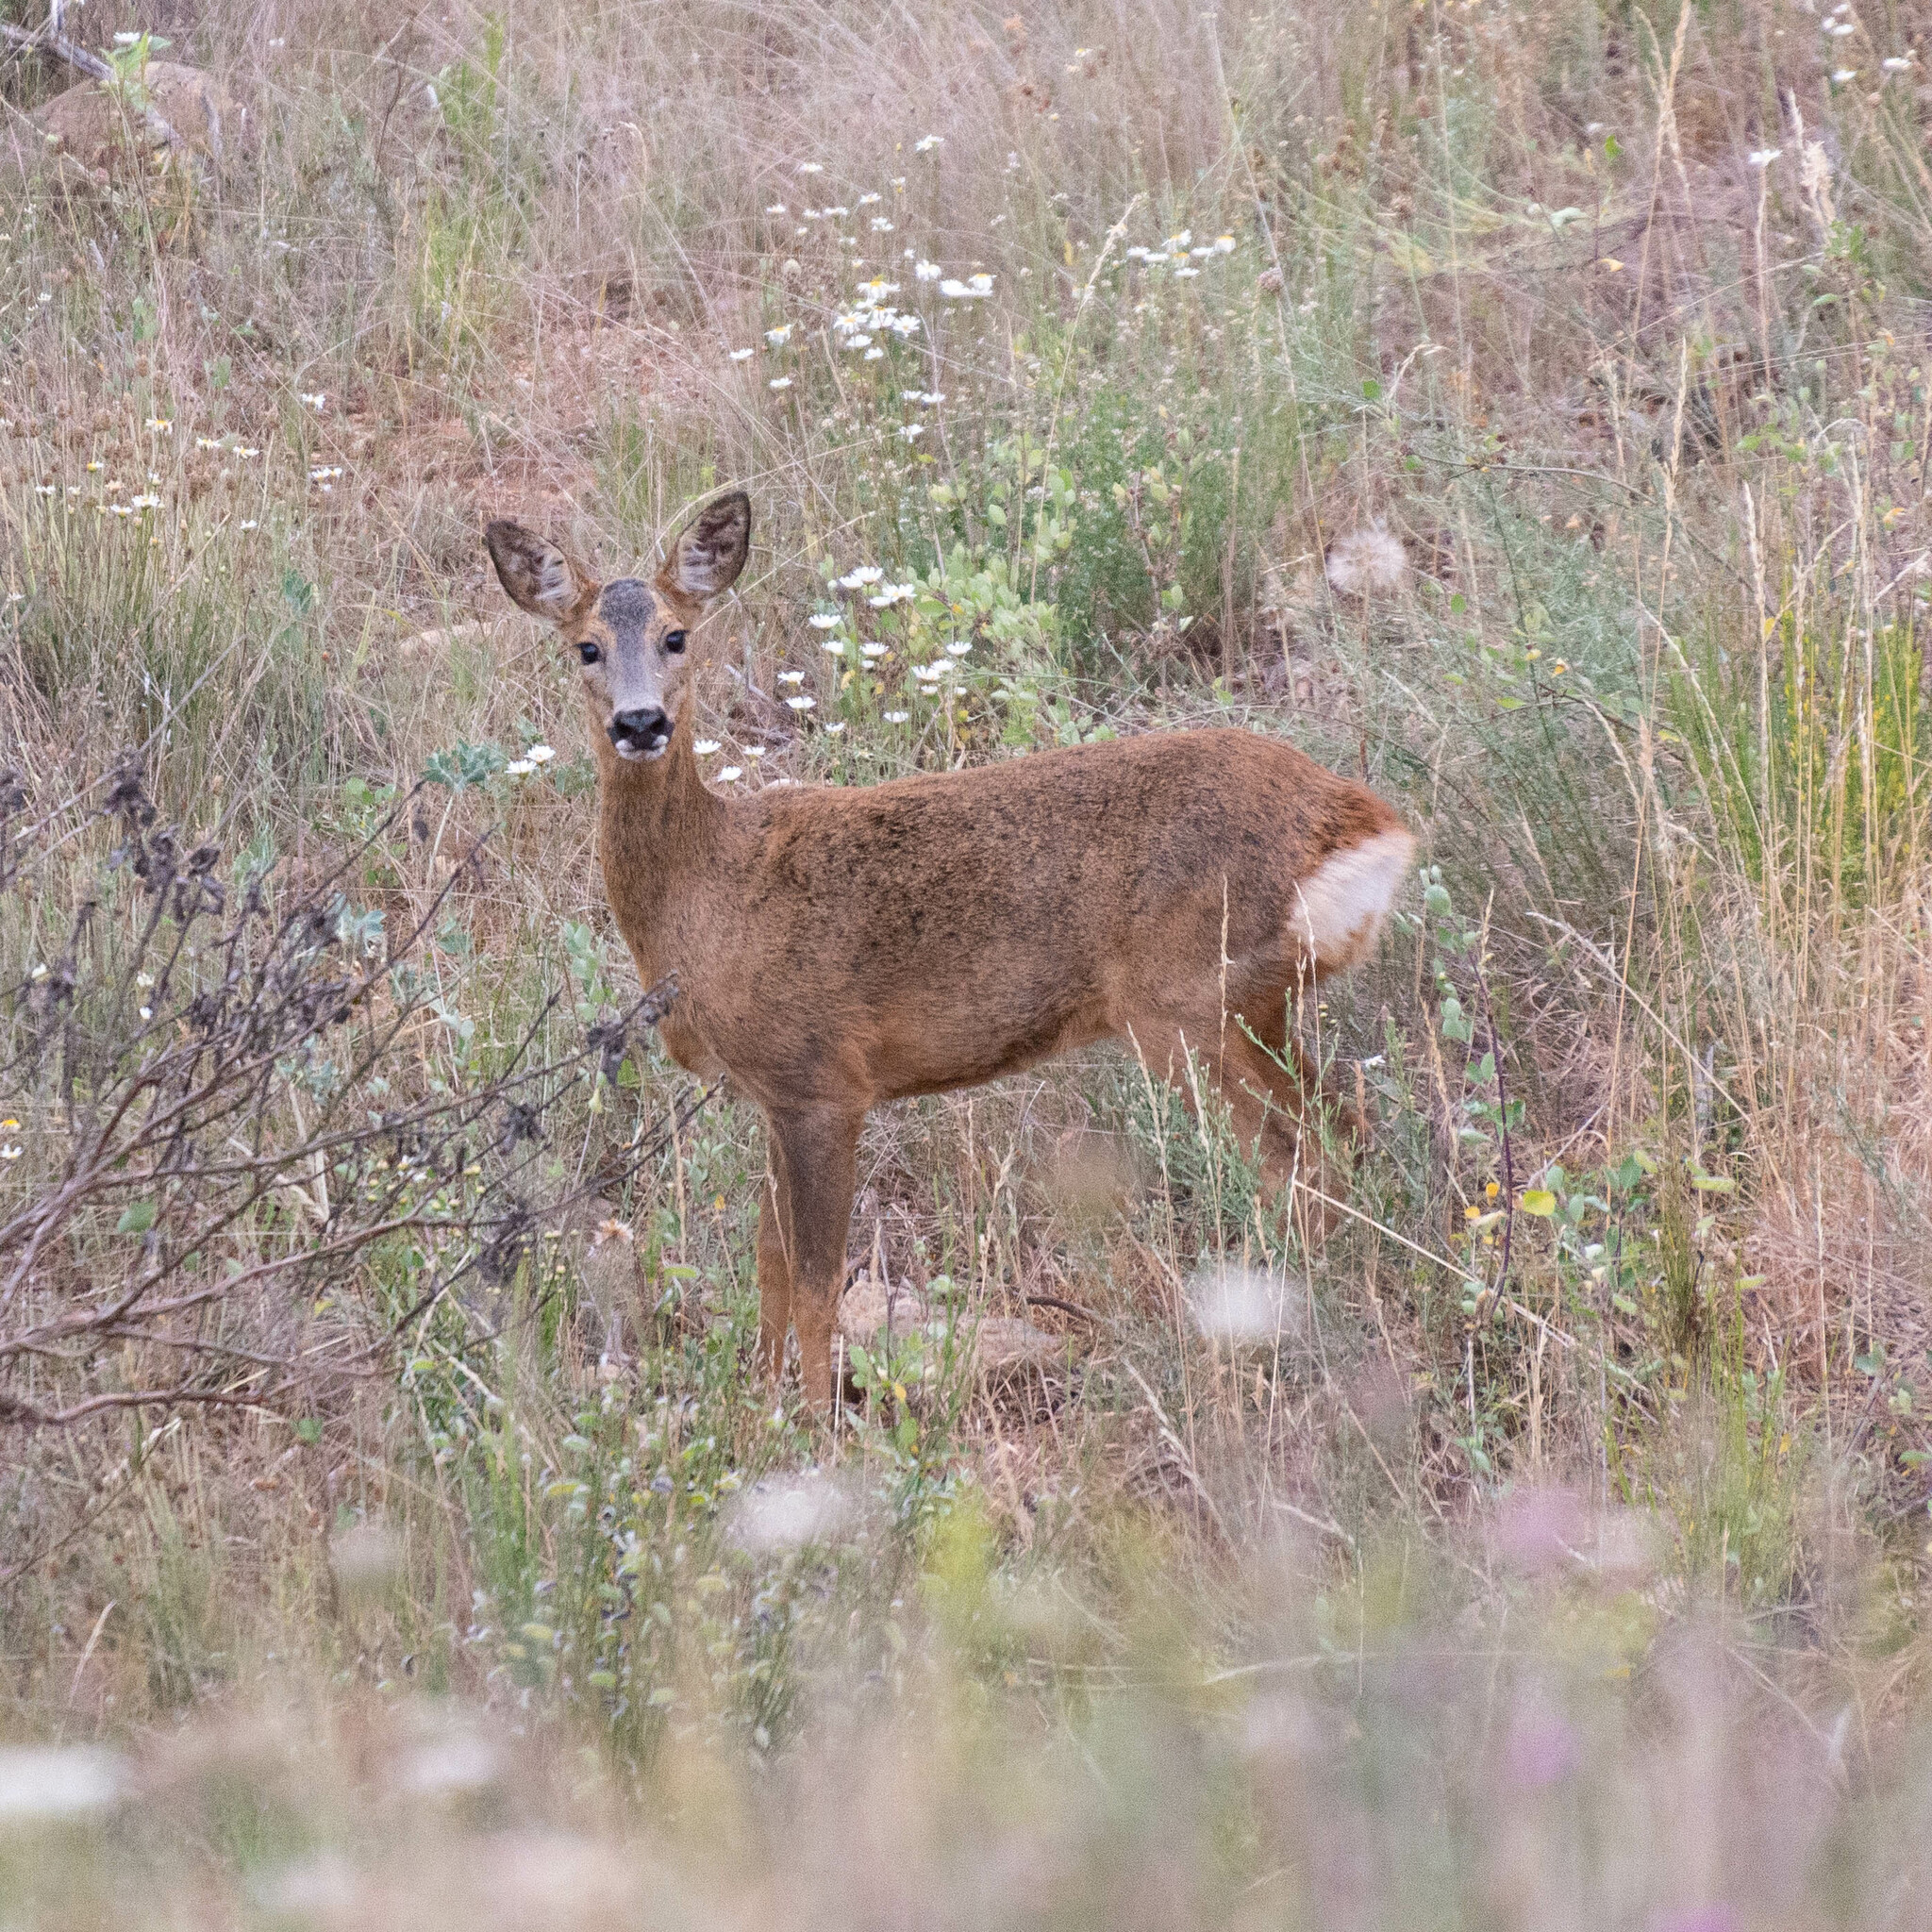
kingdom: Animalia
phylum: Chordata
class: Mammalia
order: Artiodactyla
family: Cervidae
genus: Capreolus
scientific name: Capreolus capreolus
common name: Western roe deer
